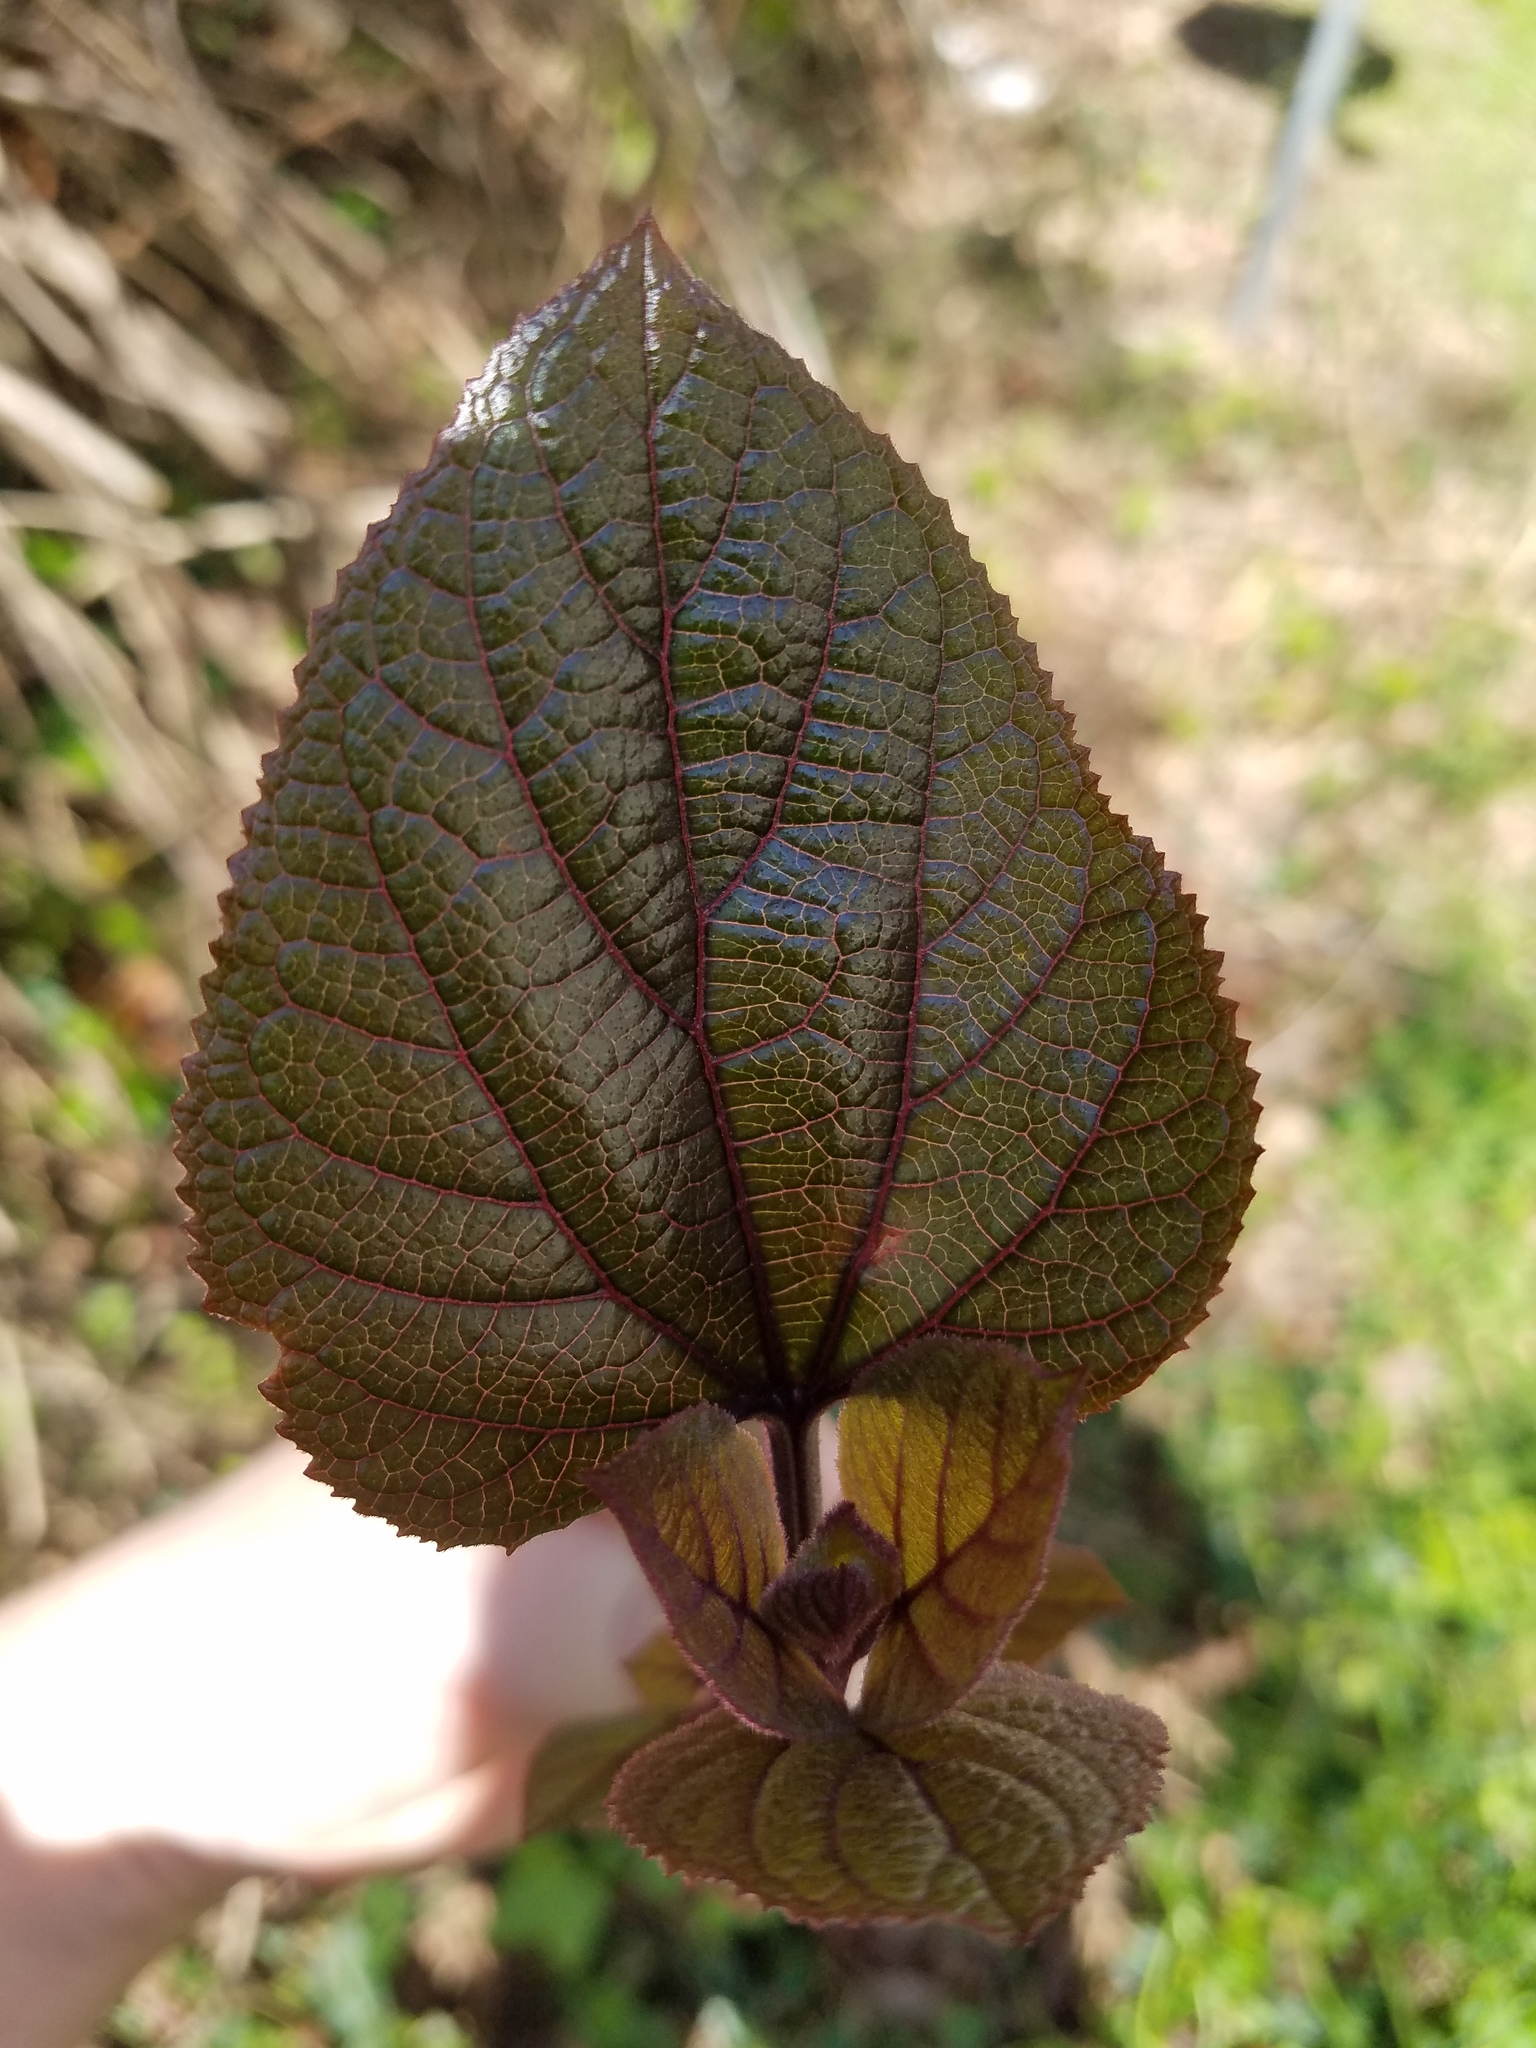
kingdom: Plantae
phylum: Tracheophyta
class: Magnoliopsida
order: Lamiales
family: Lamiaceae
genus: Clerodendrum
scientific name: Clerodendrum bungei
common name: Rose glorybower
